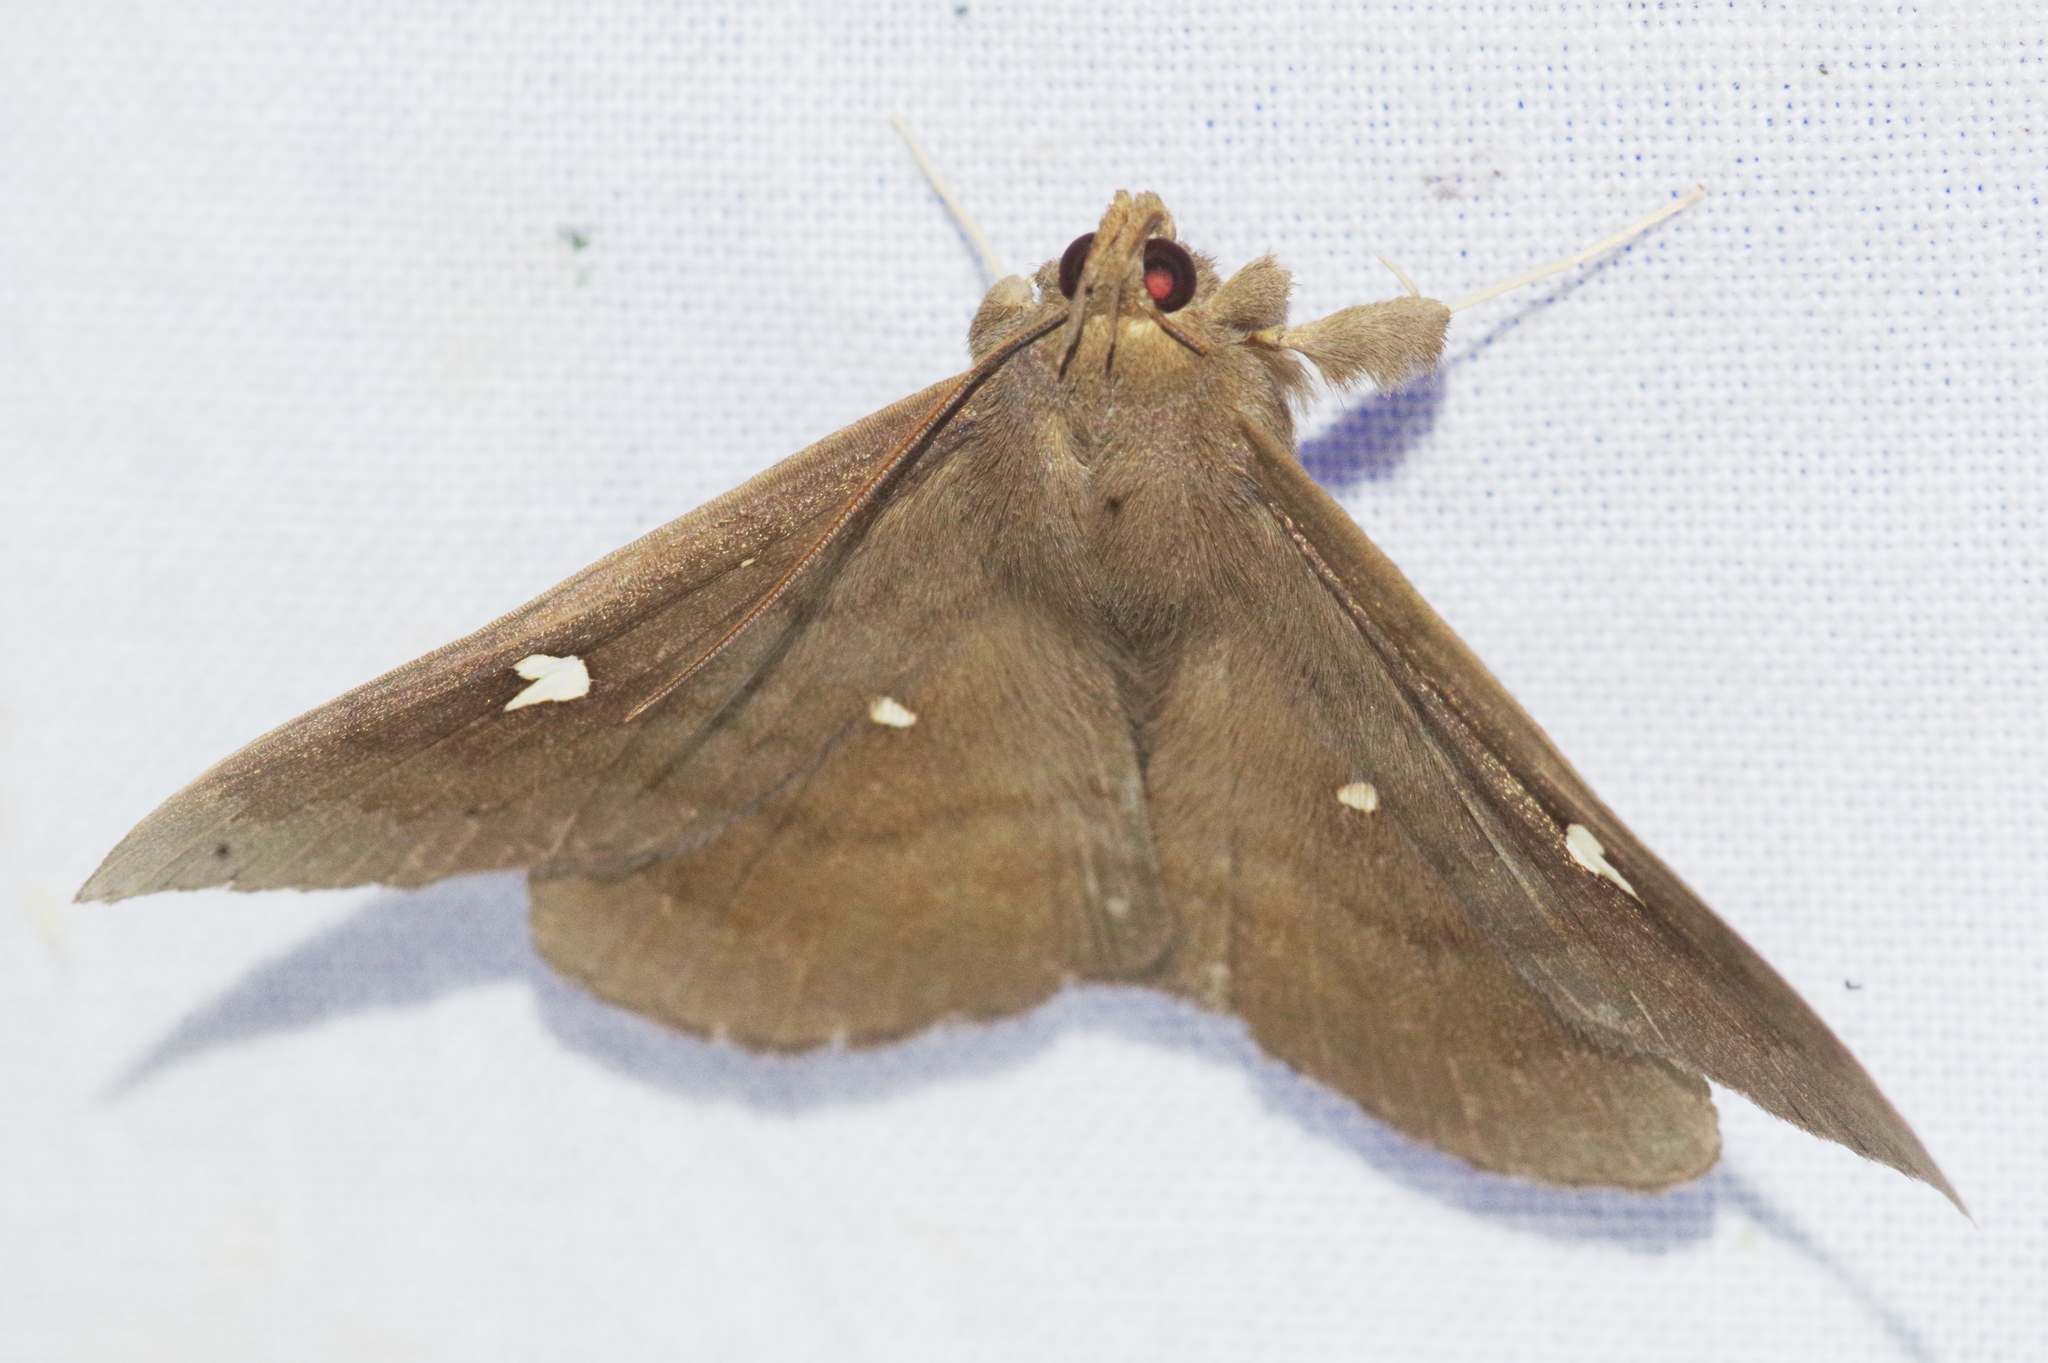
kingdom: Animalia
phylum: Arthropoda
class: Insecta
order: Lepidoptera
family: Erebidae
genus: Edessena
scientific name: Edessena hamada
